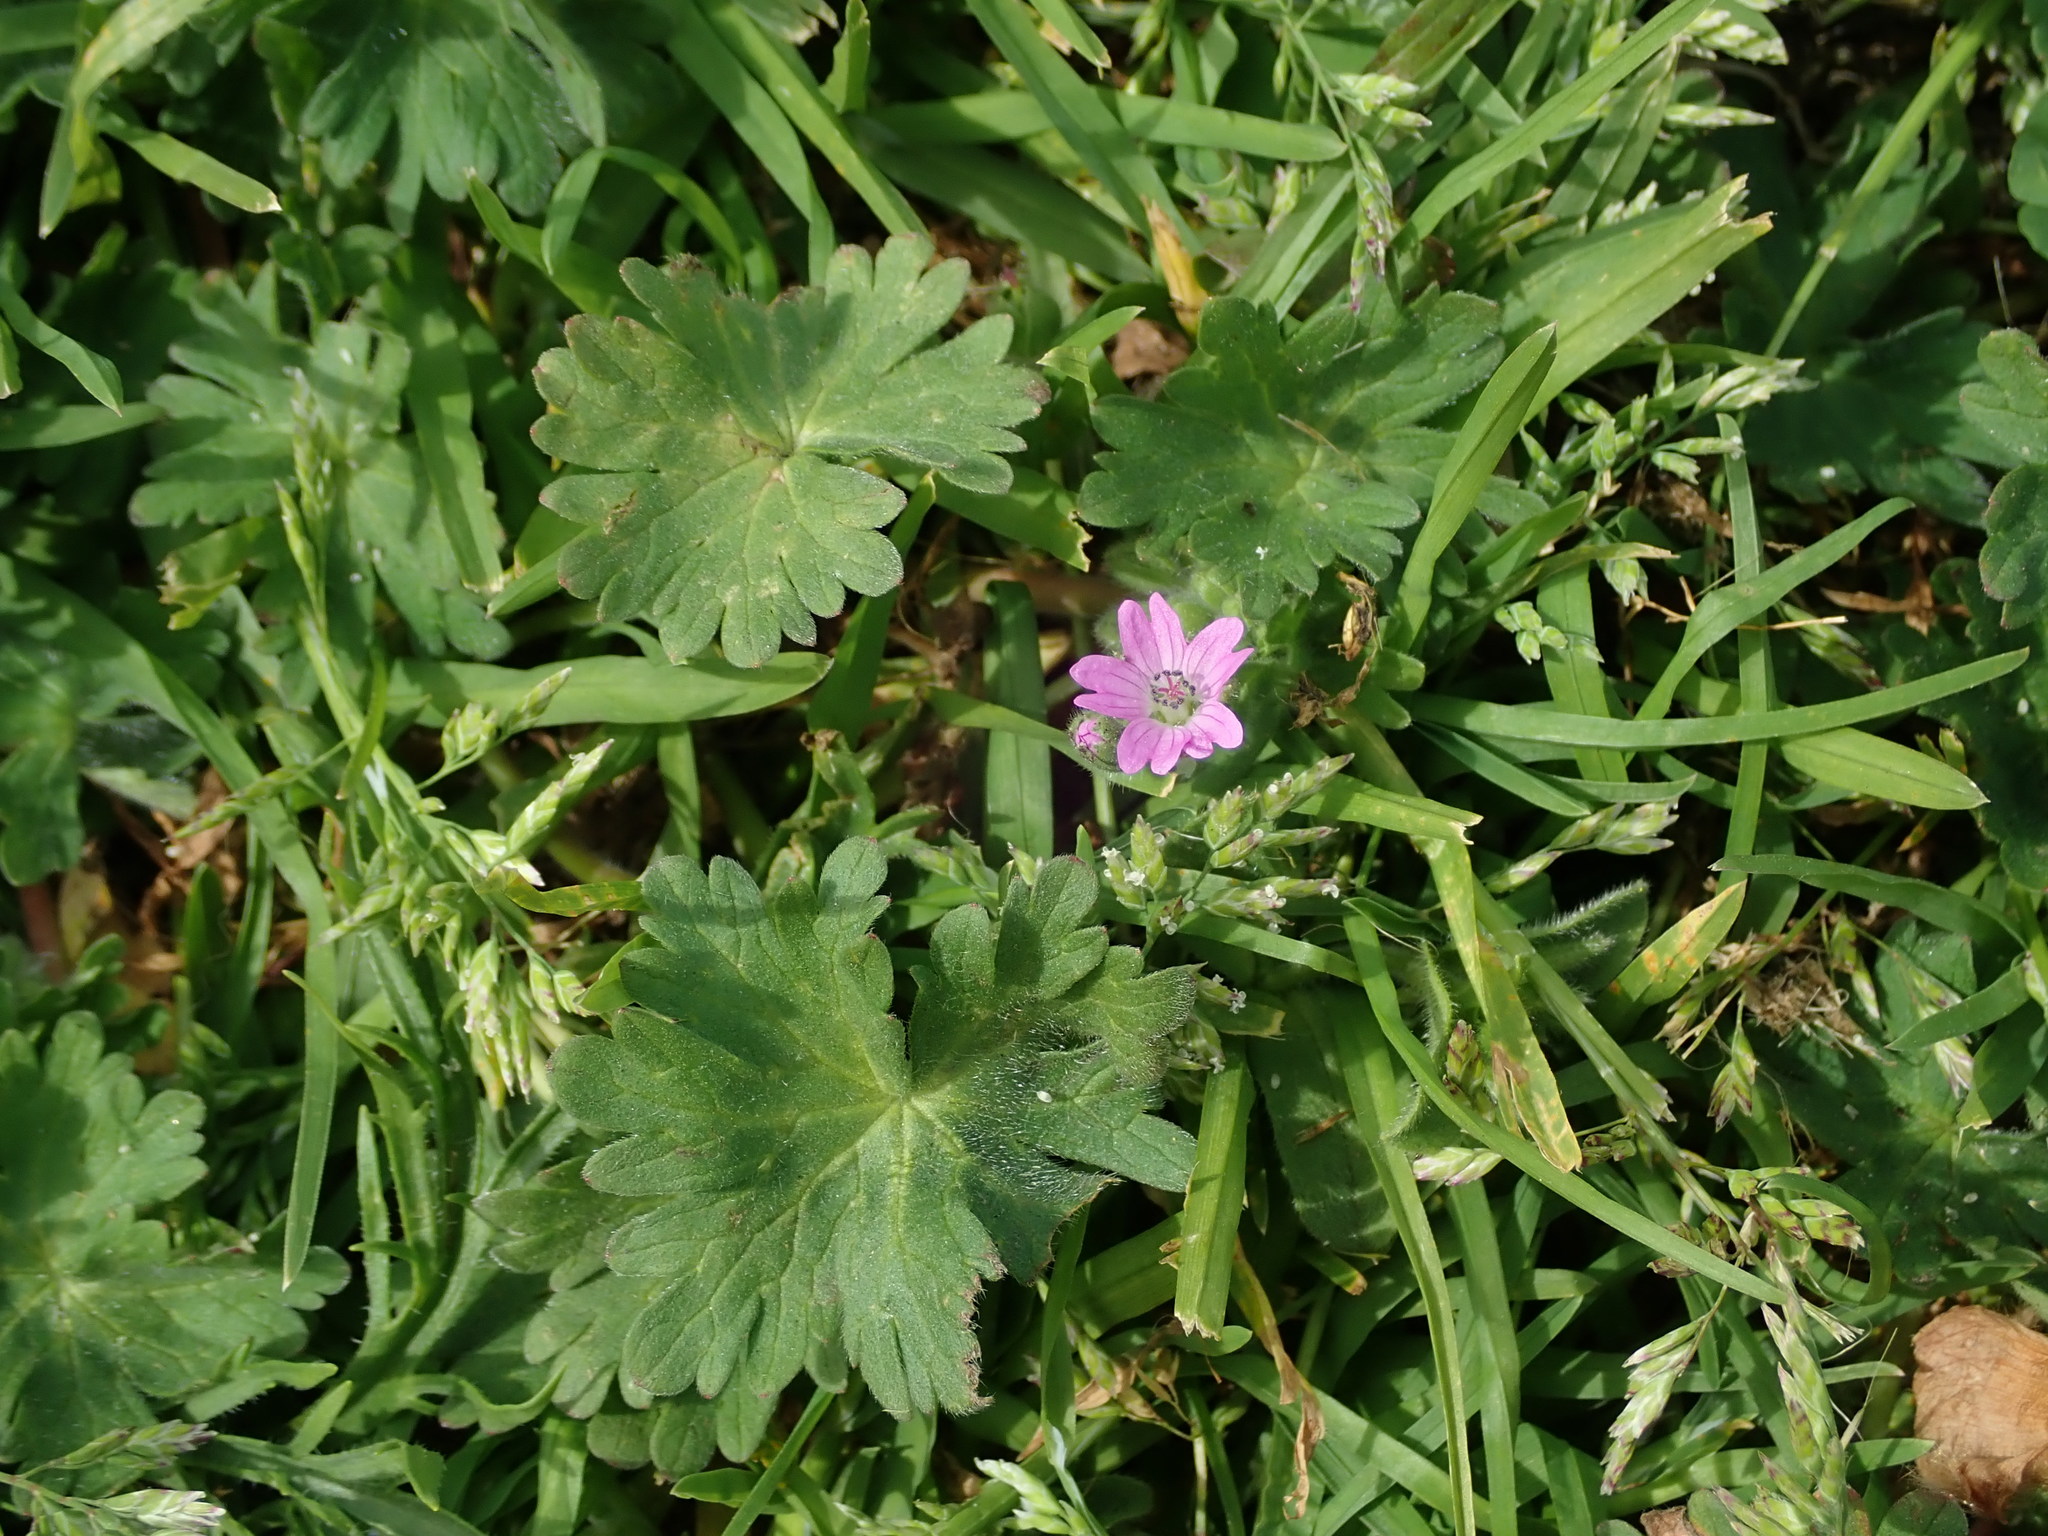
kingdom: Plantae
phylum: Tracheophyta
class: Magnoliopsida
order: Geraniales
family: Geraniaceae
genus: Geranium
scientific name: Geranium molle
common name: Dove's-foot crane's-bill
